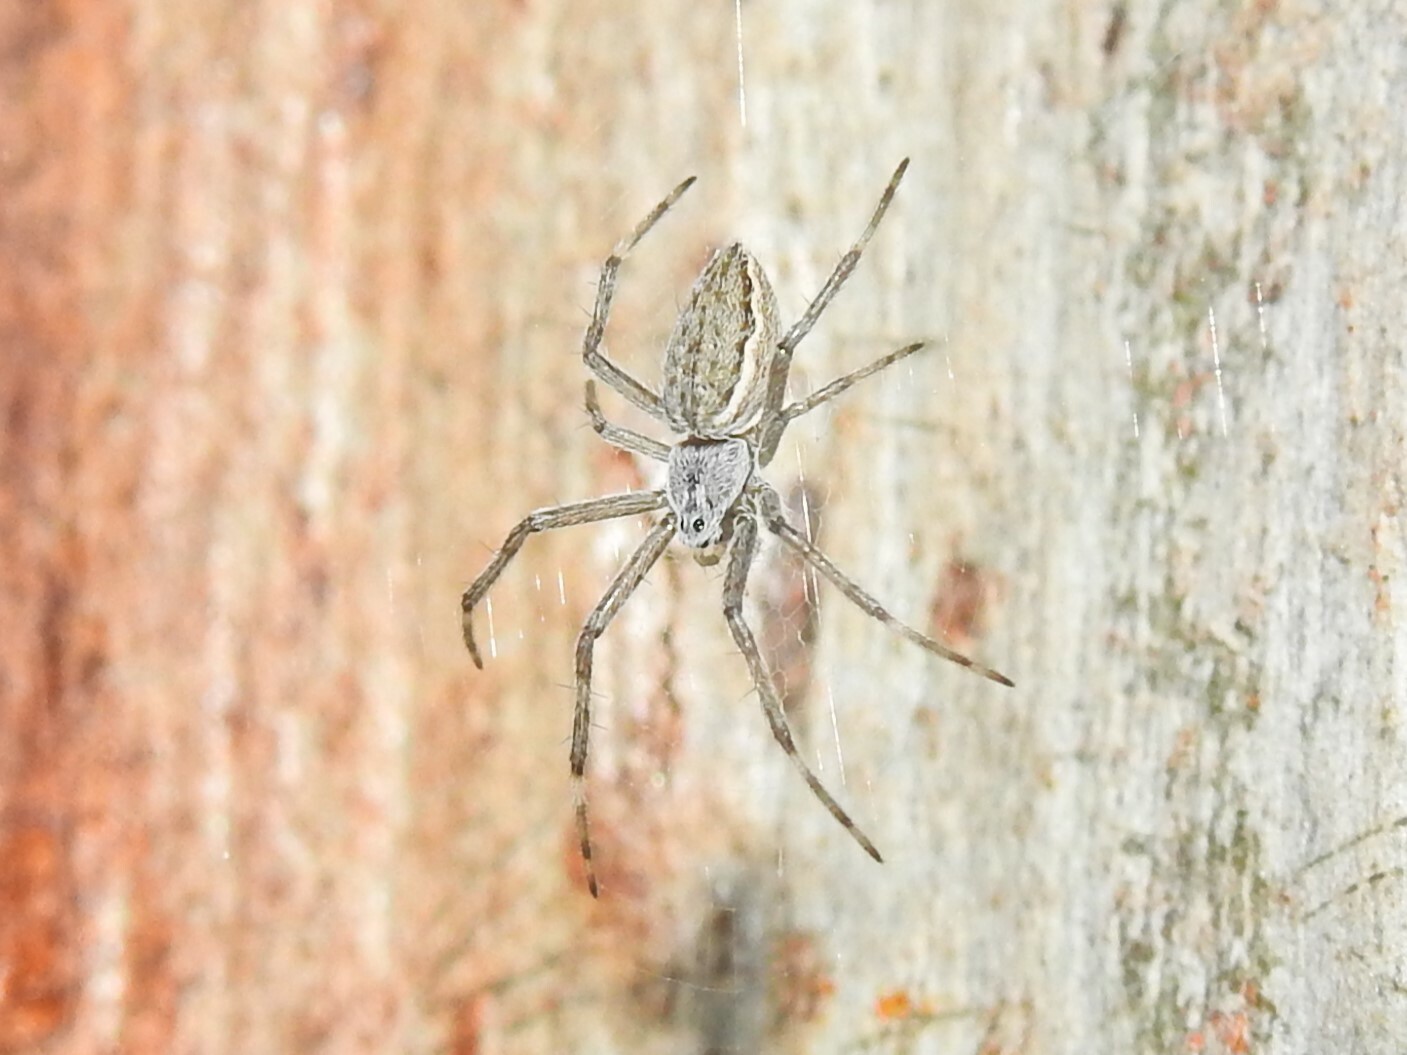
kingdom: Animalia
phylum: Arthropoda
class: Arachnida
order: Araneae
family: Araneidae
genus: Argiope
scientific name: Argiope ocyaloides
